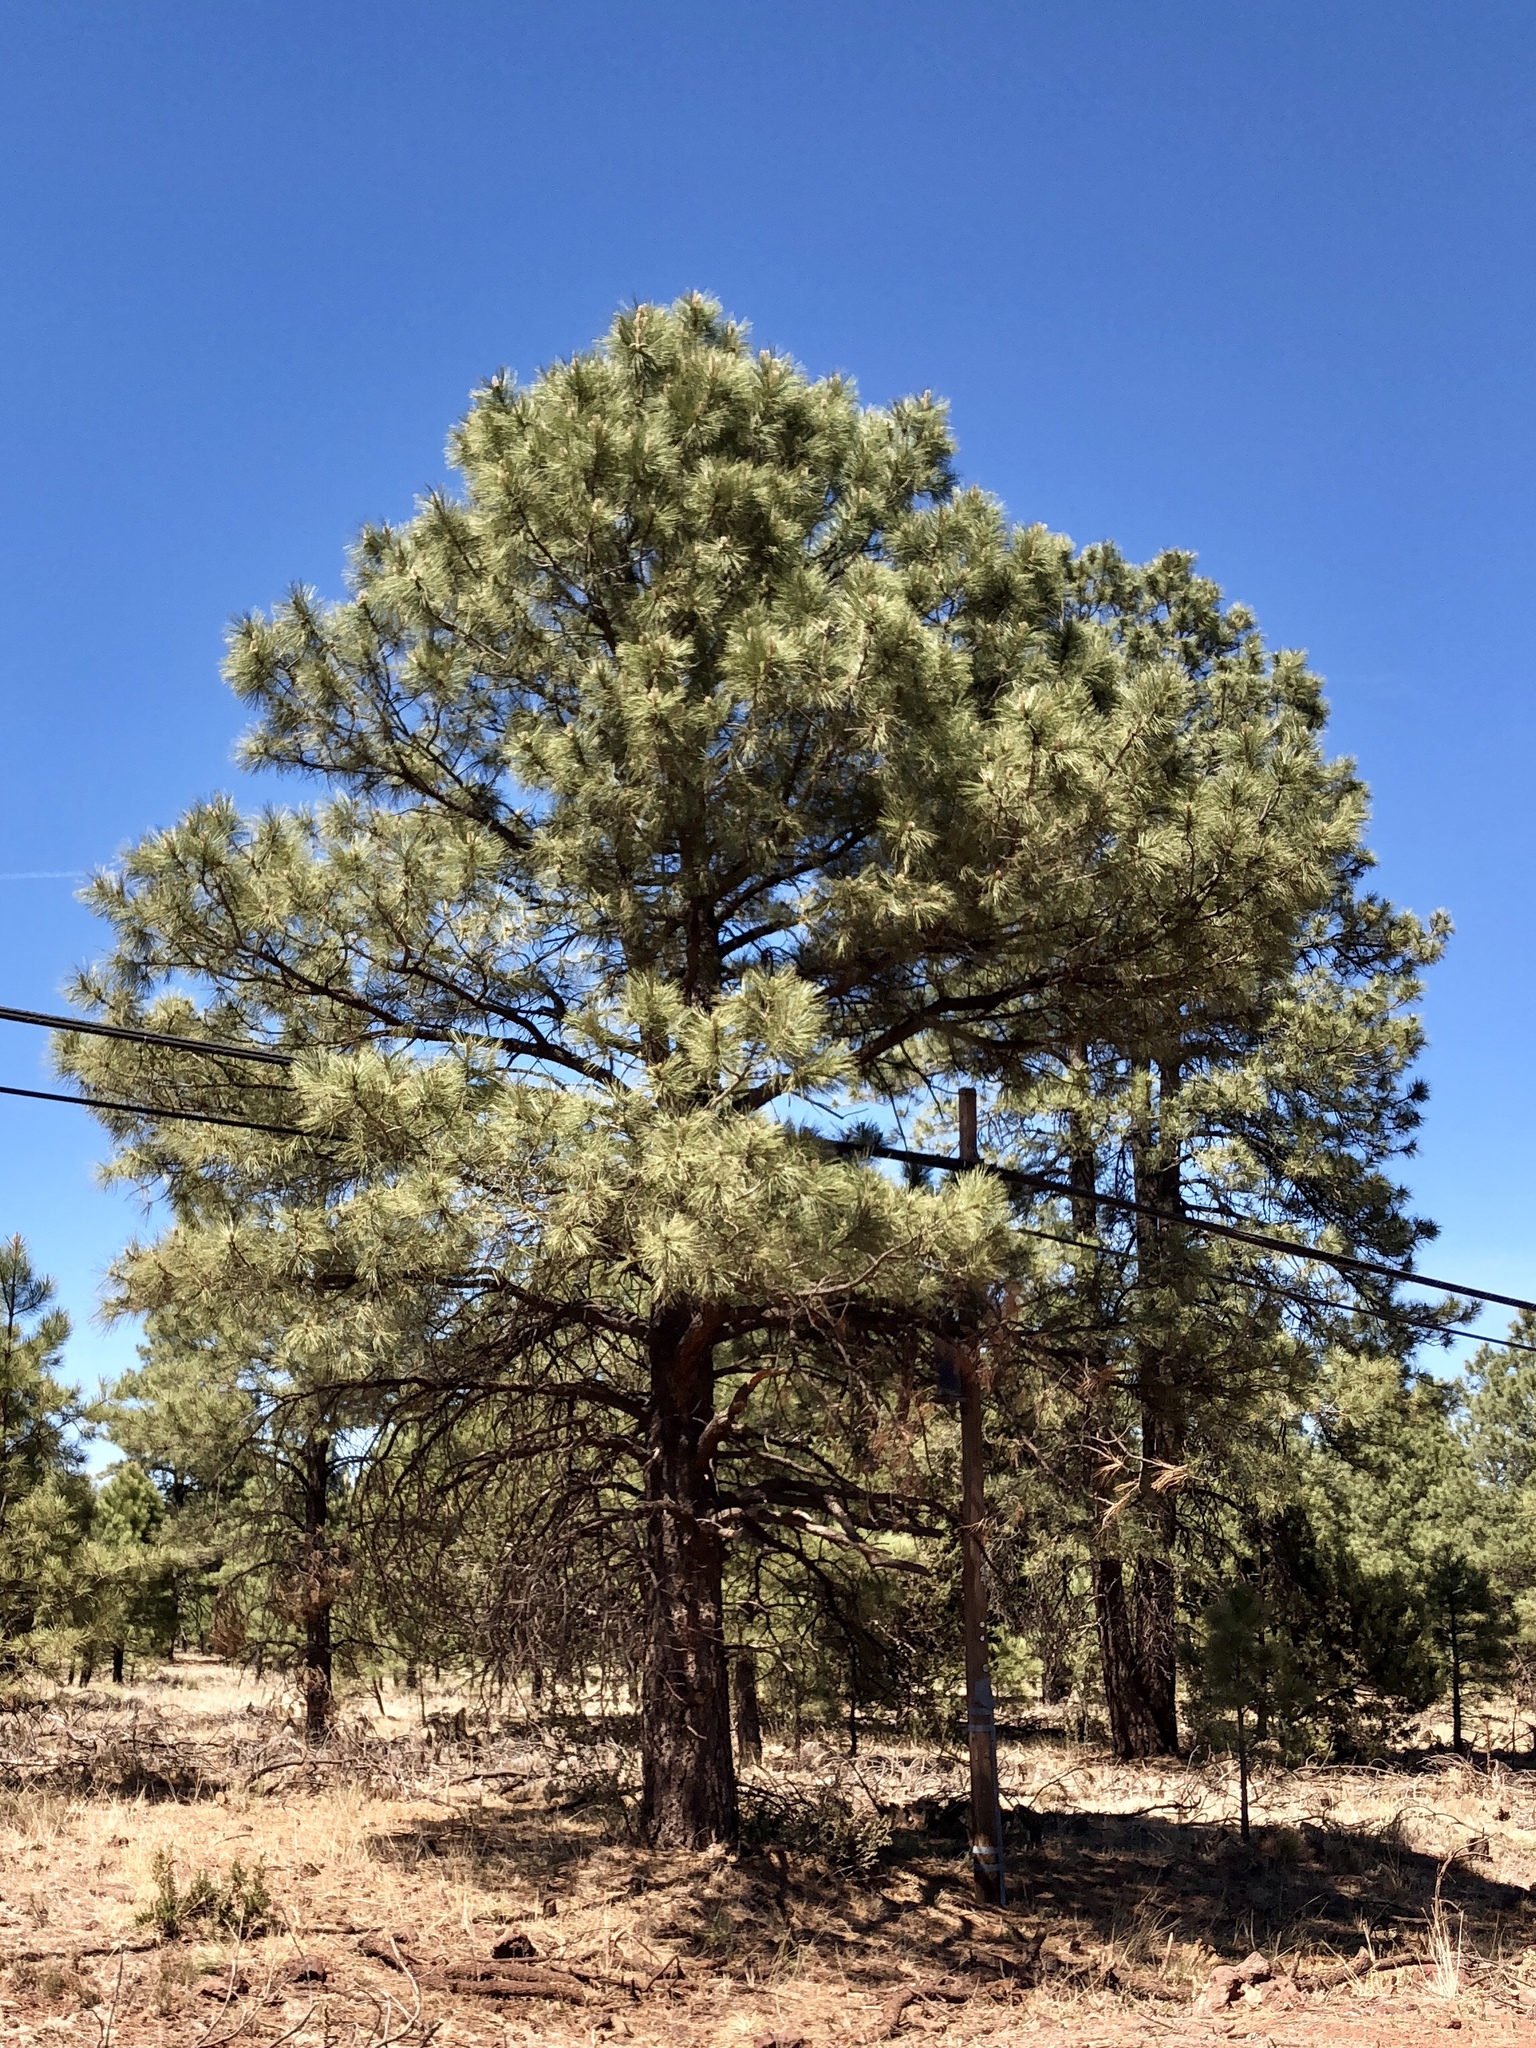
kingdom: Plantae
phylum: Tracheophyta
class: Pinopsida
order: Pinales
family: Pinaceae
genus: Pinus
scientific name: Pinus ponderosa
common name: Western yellow-pine
